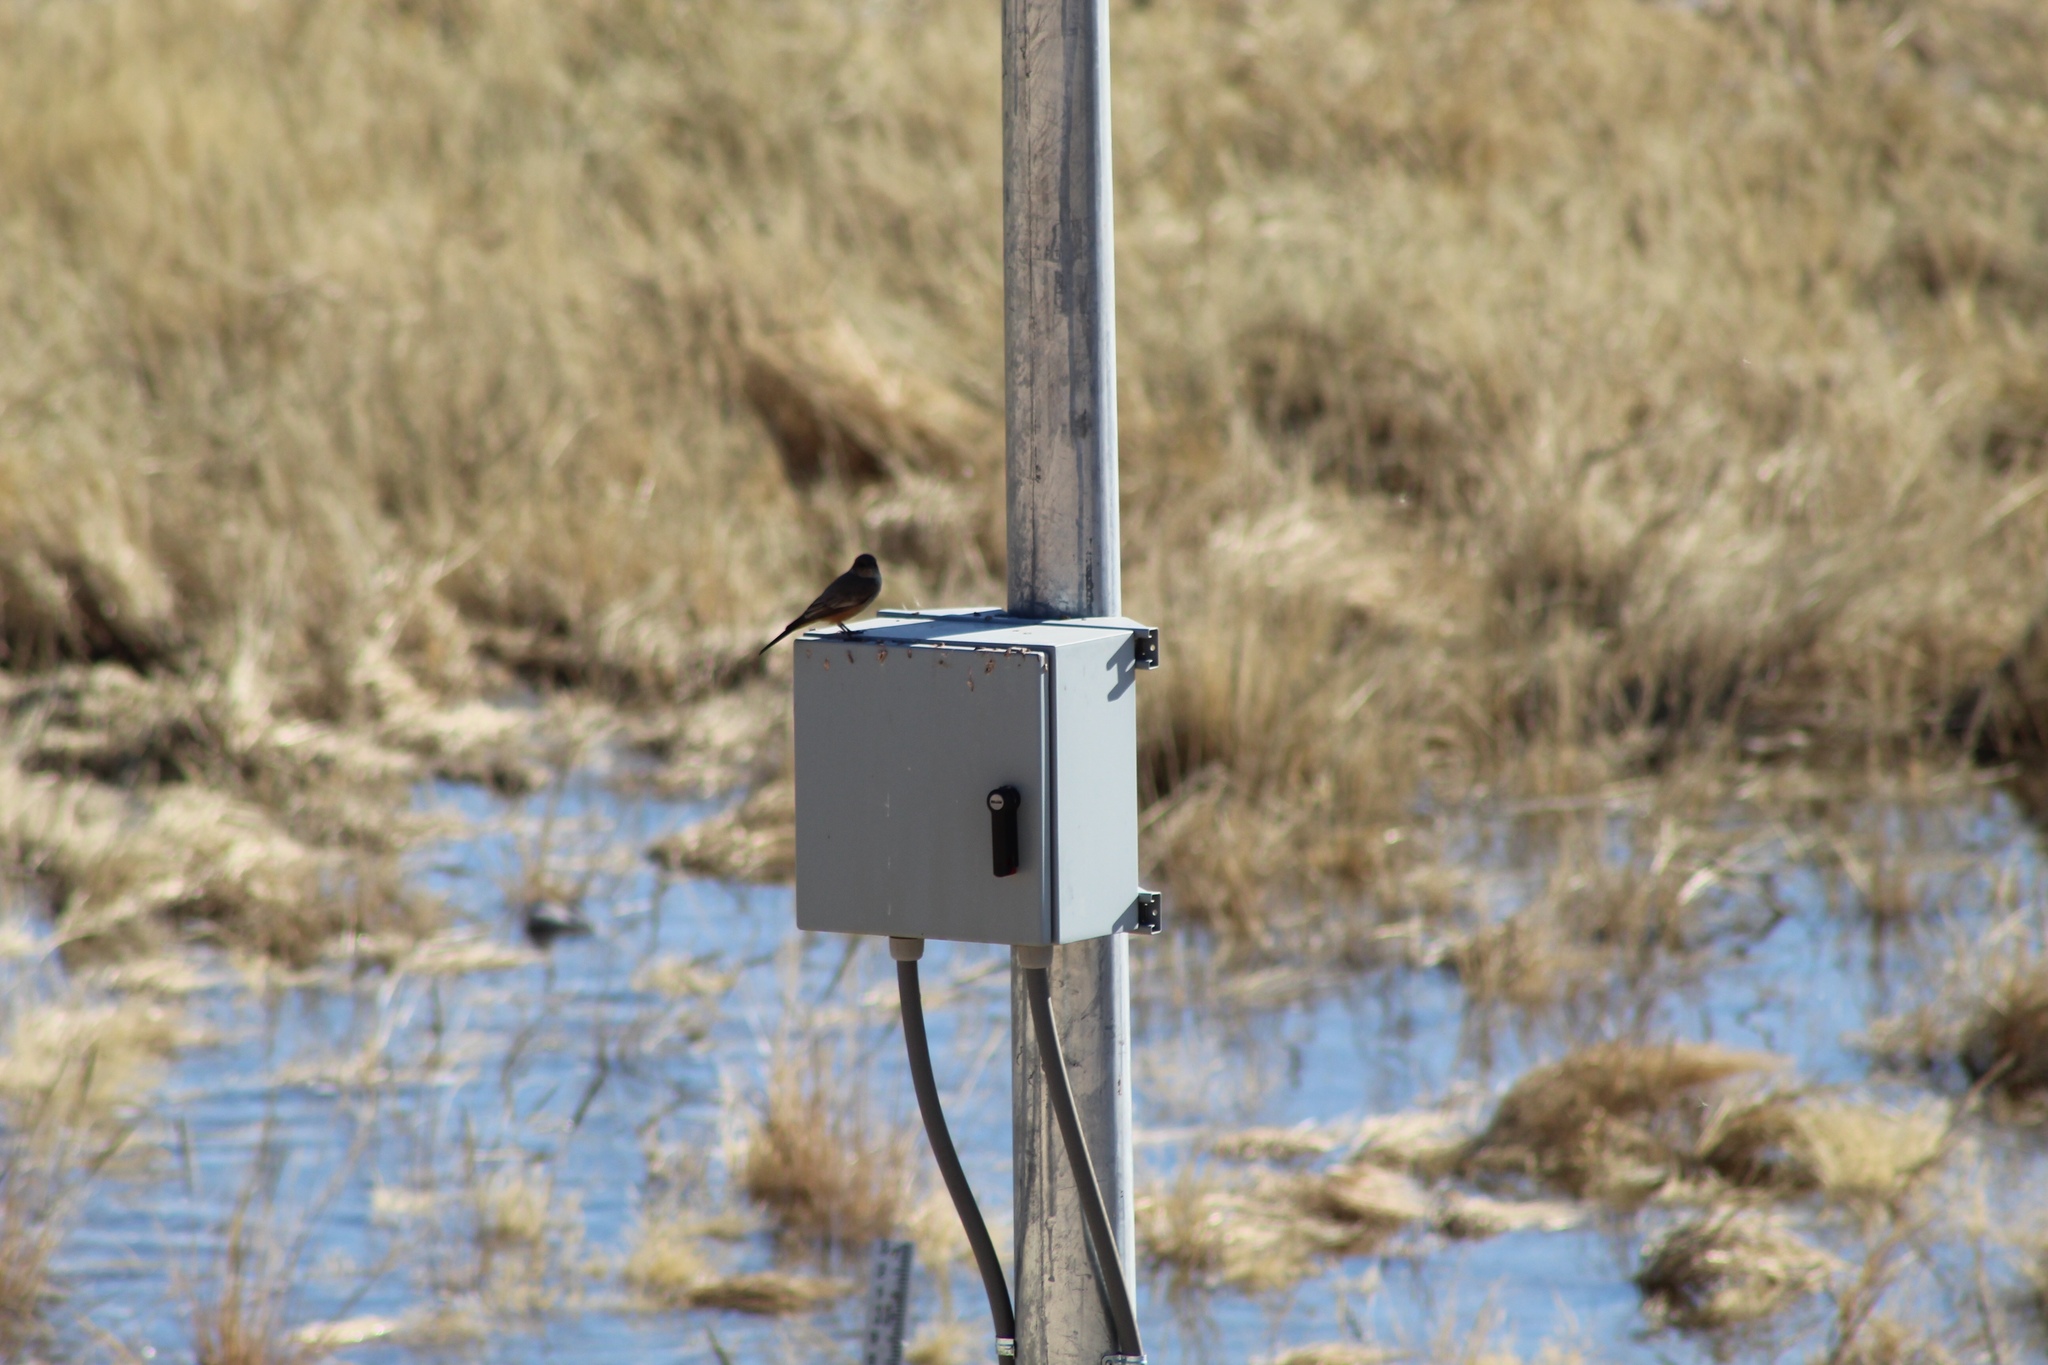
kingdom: Animalia
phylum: Chordata
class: Aves
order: Passeriformes
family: Tyrannidae
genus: Sayornis
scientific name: Sayornis saya
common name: Say's phoebe
